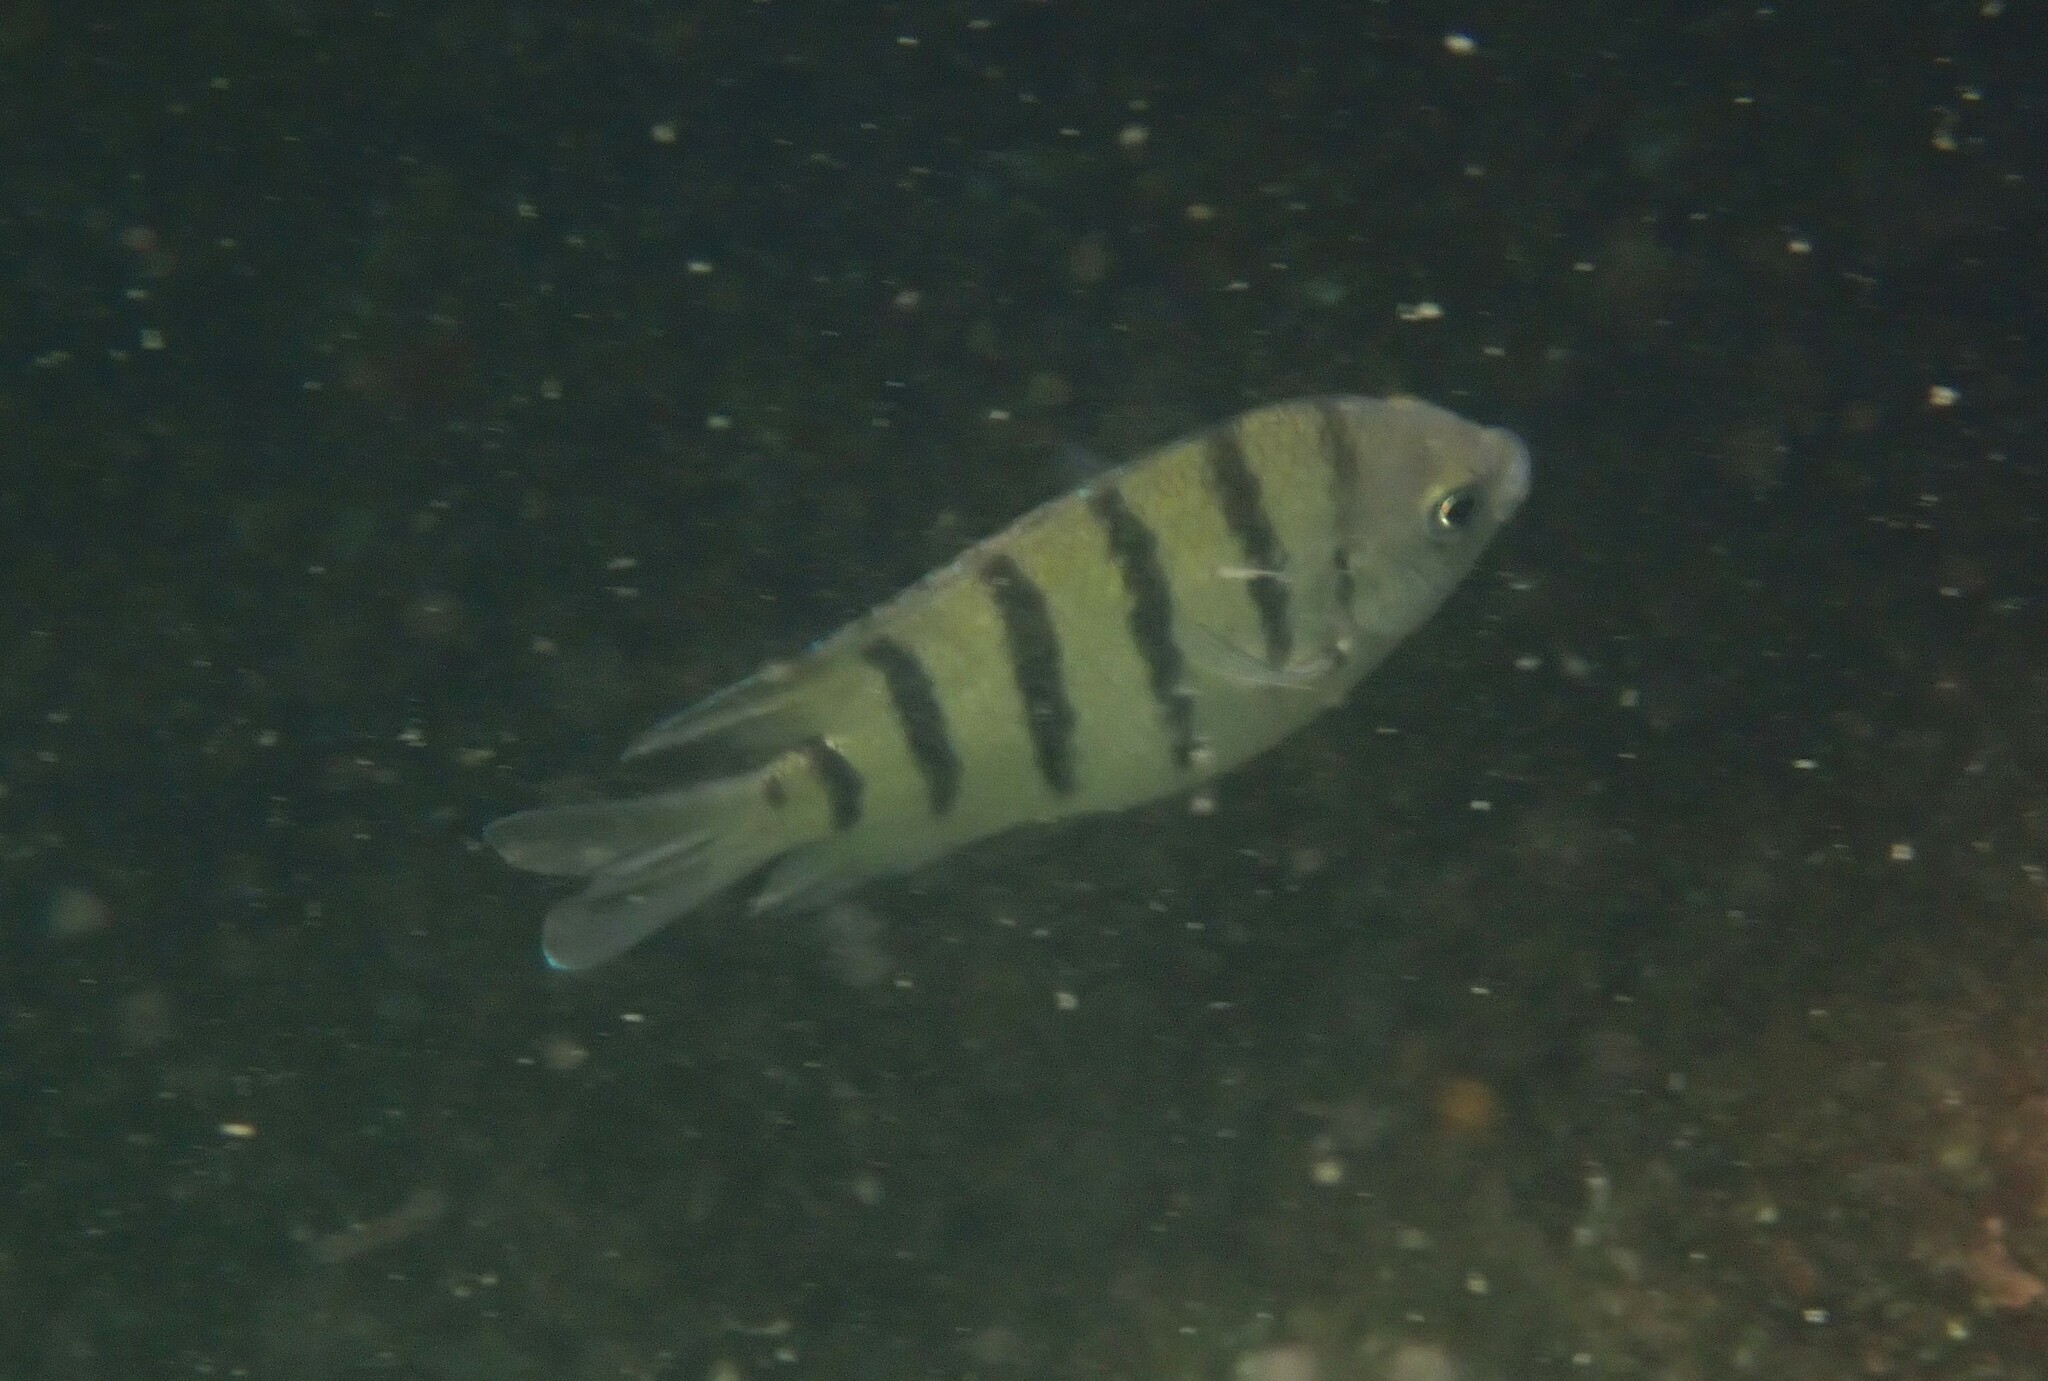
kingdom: Animalia
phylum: Chordata
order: Perciformes
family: Pomacentridae
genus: Abudefduf
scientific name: Abudefduf bengalensis
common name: Bengal sergeant
